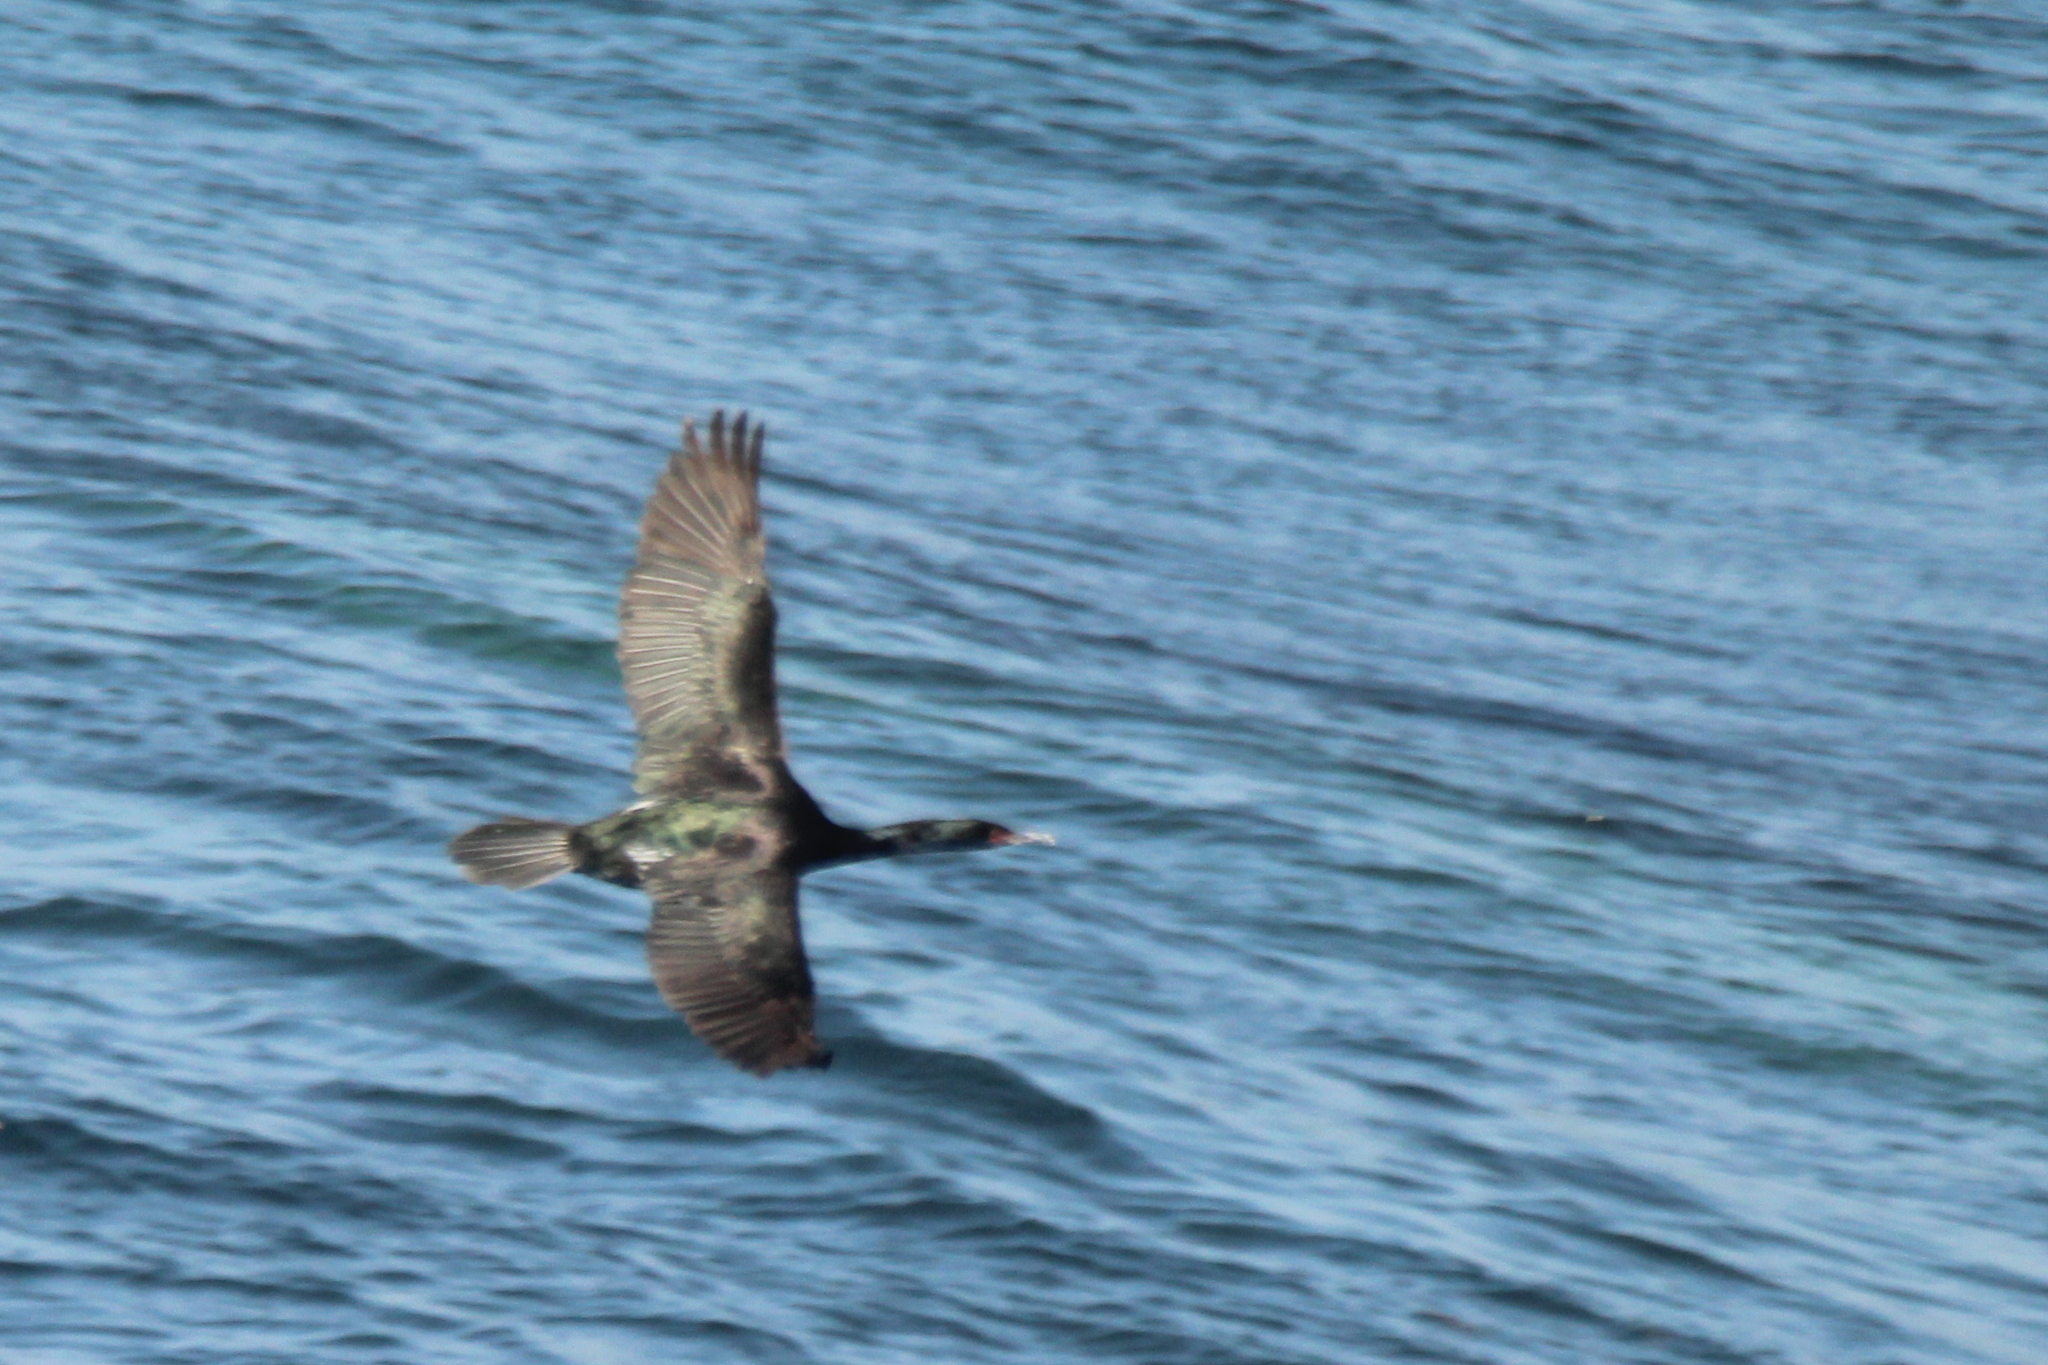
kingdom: Animalia
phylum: Chordata
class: Aves
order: Suliformes
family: Phalacrocoracidae
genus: Phalacrocorax
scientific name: Phalacrocorax pelagicus
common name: Pelagic cormorant
